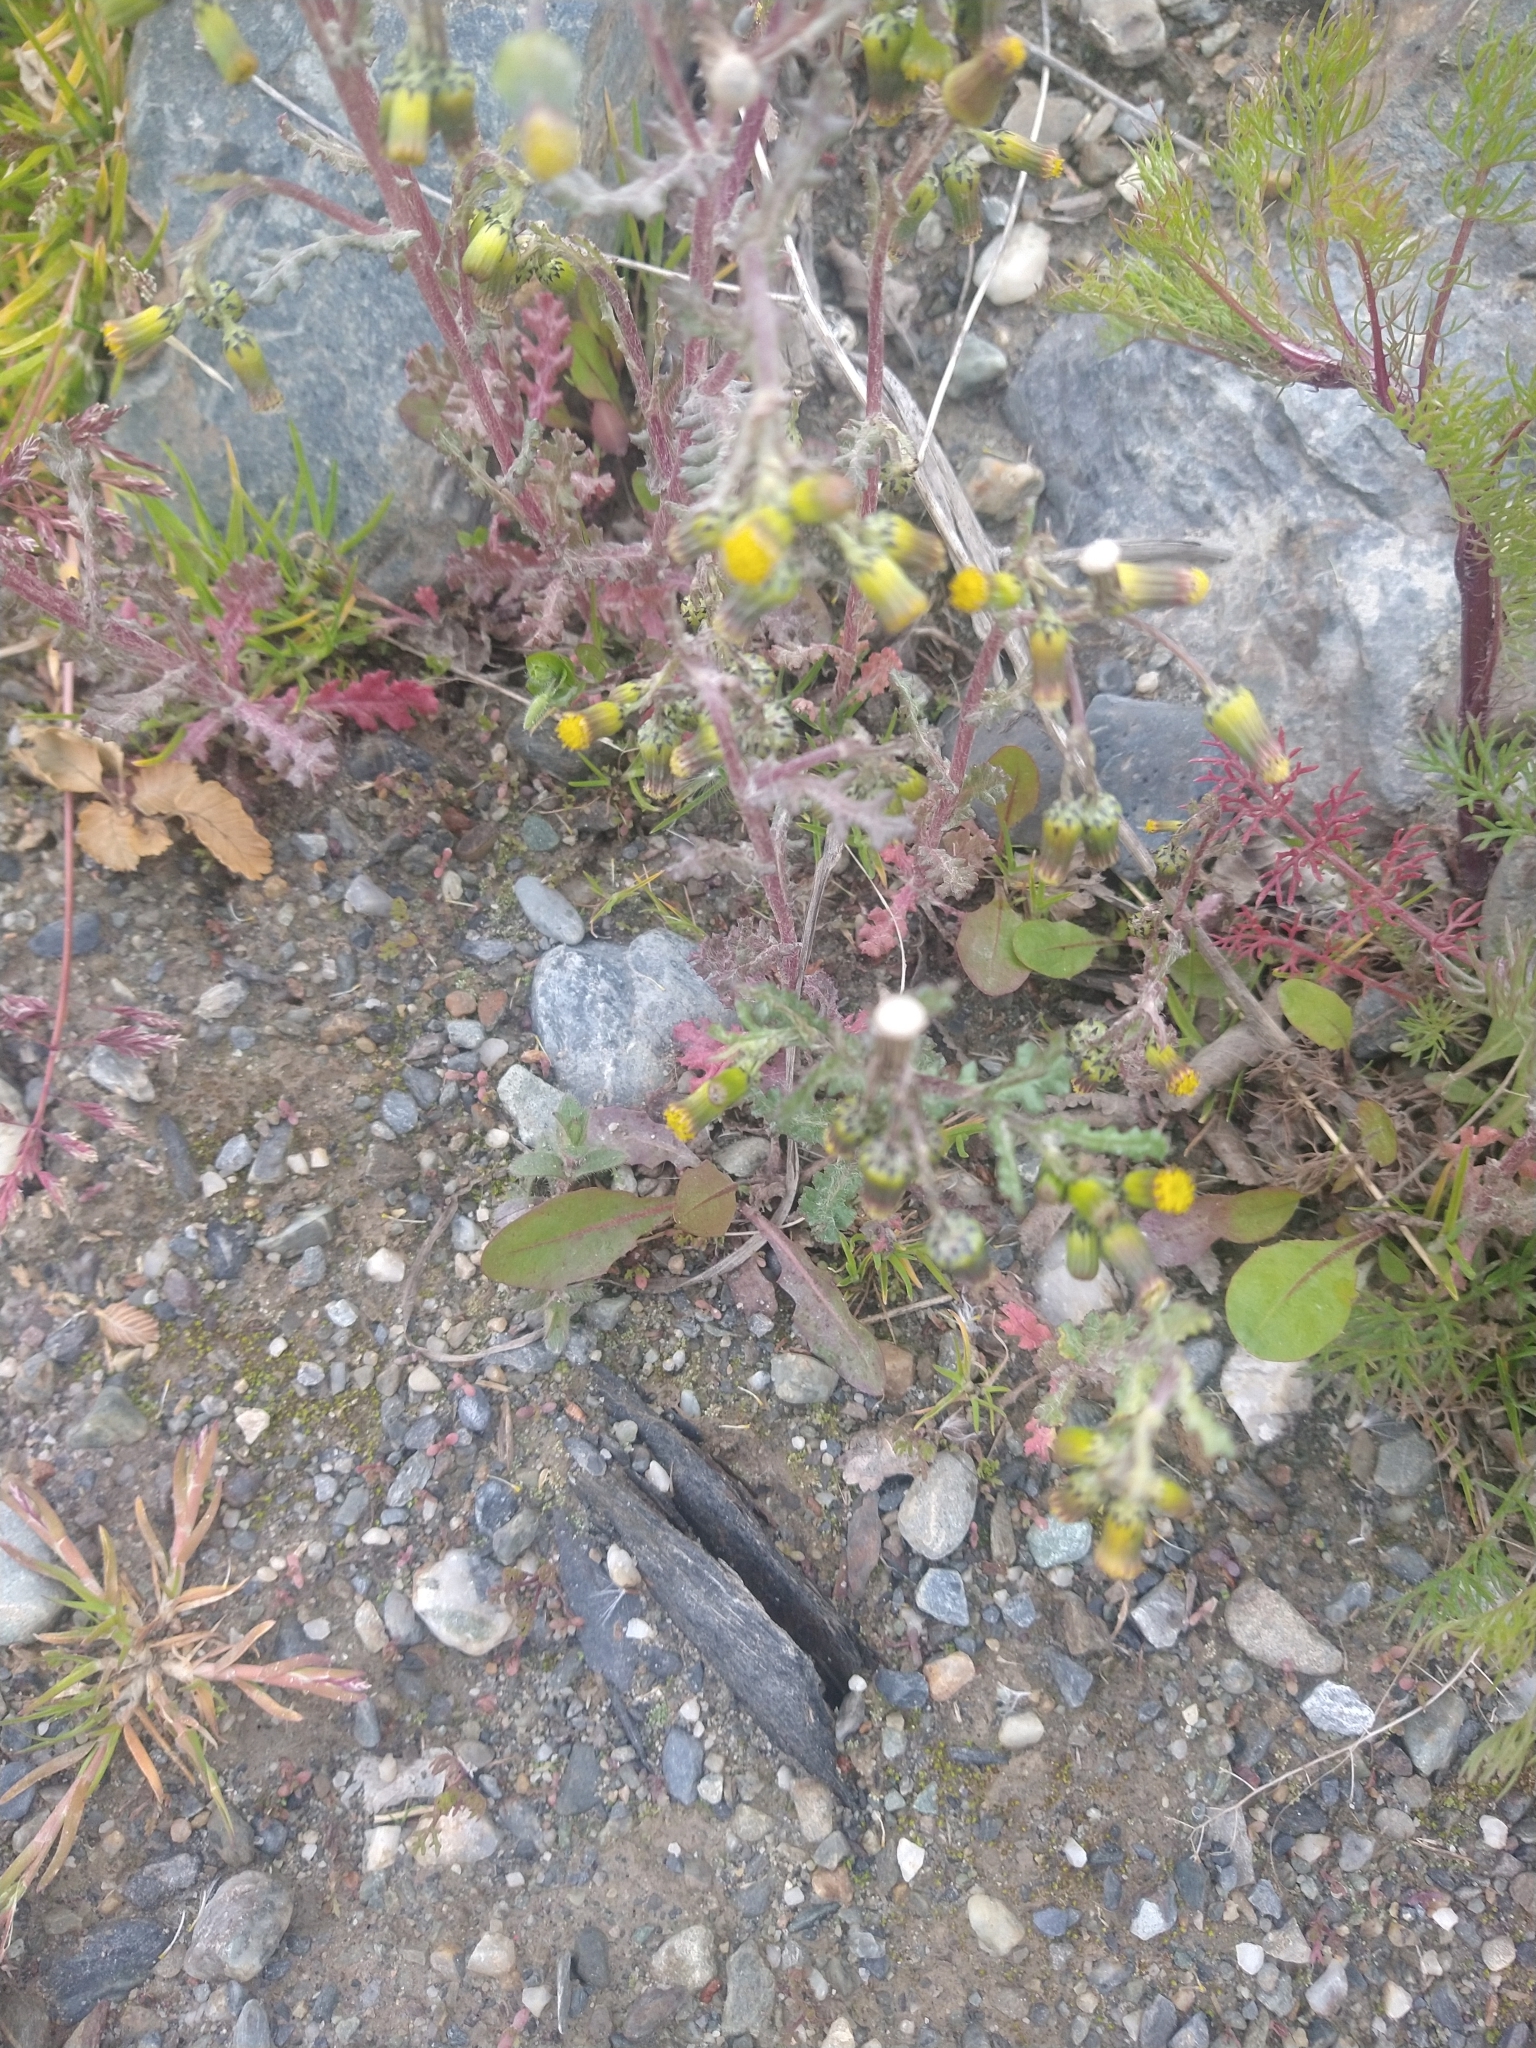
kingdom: Plantae
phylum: Tracheophyta
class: Magnoliopsida
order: Asterales
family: Asteraceae
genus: Senecio
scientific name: Senecio vulgaris
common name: Old-man-in-the-spring
